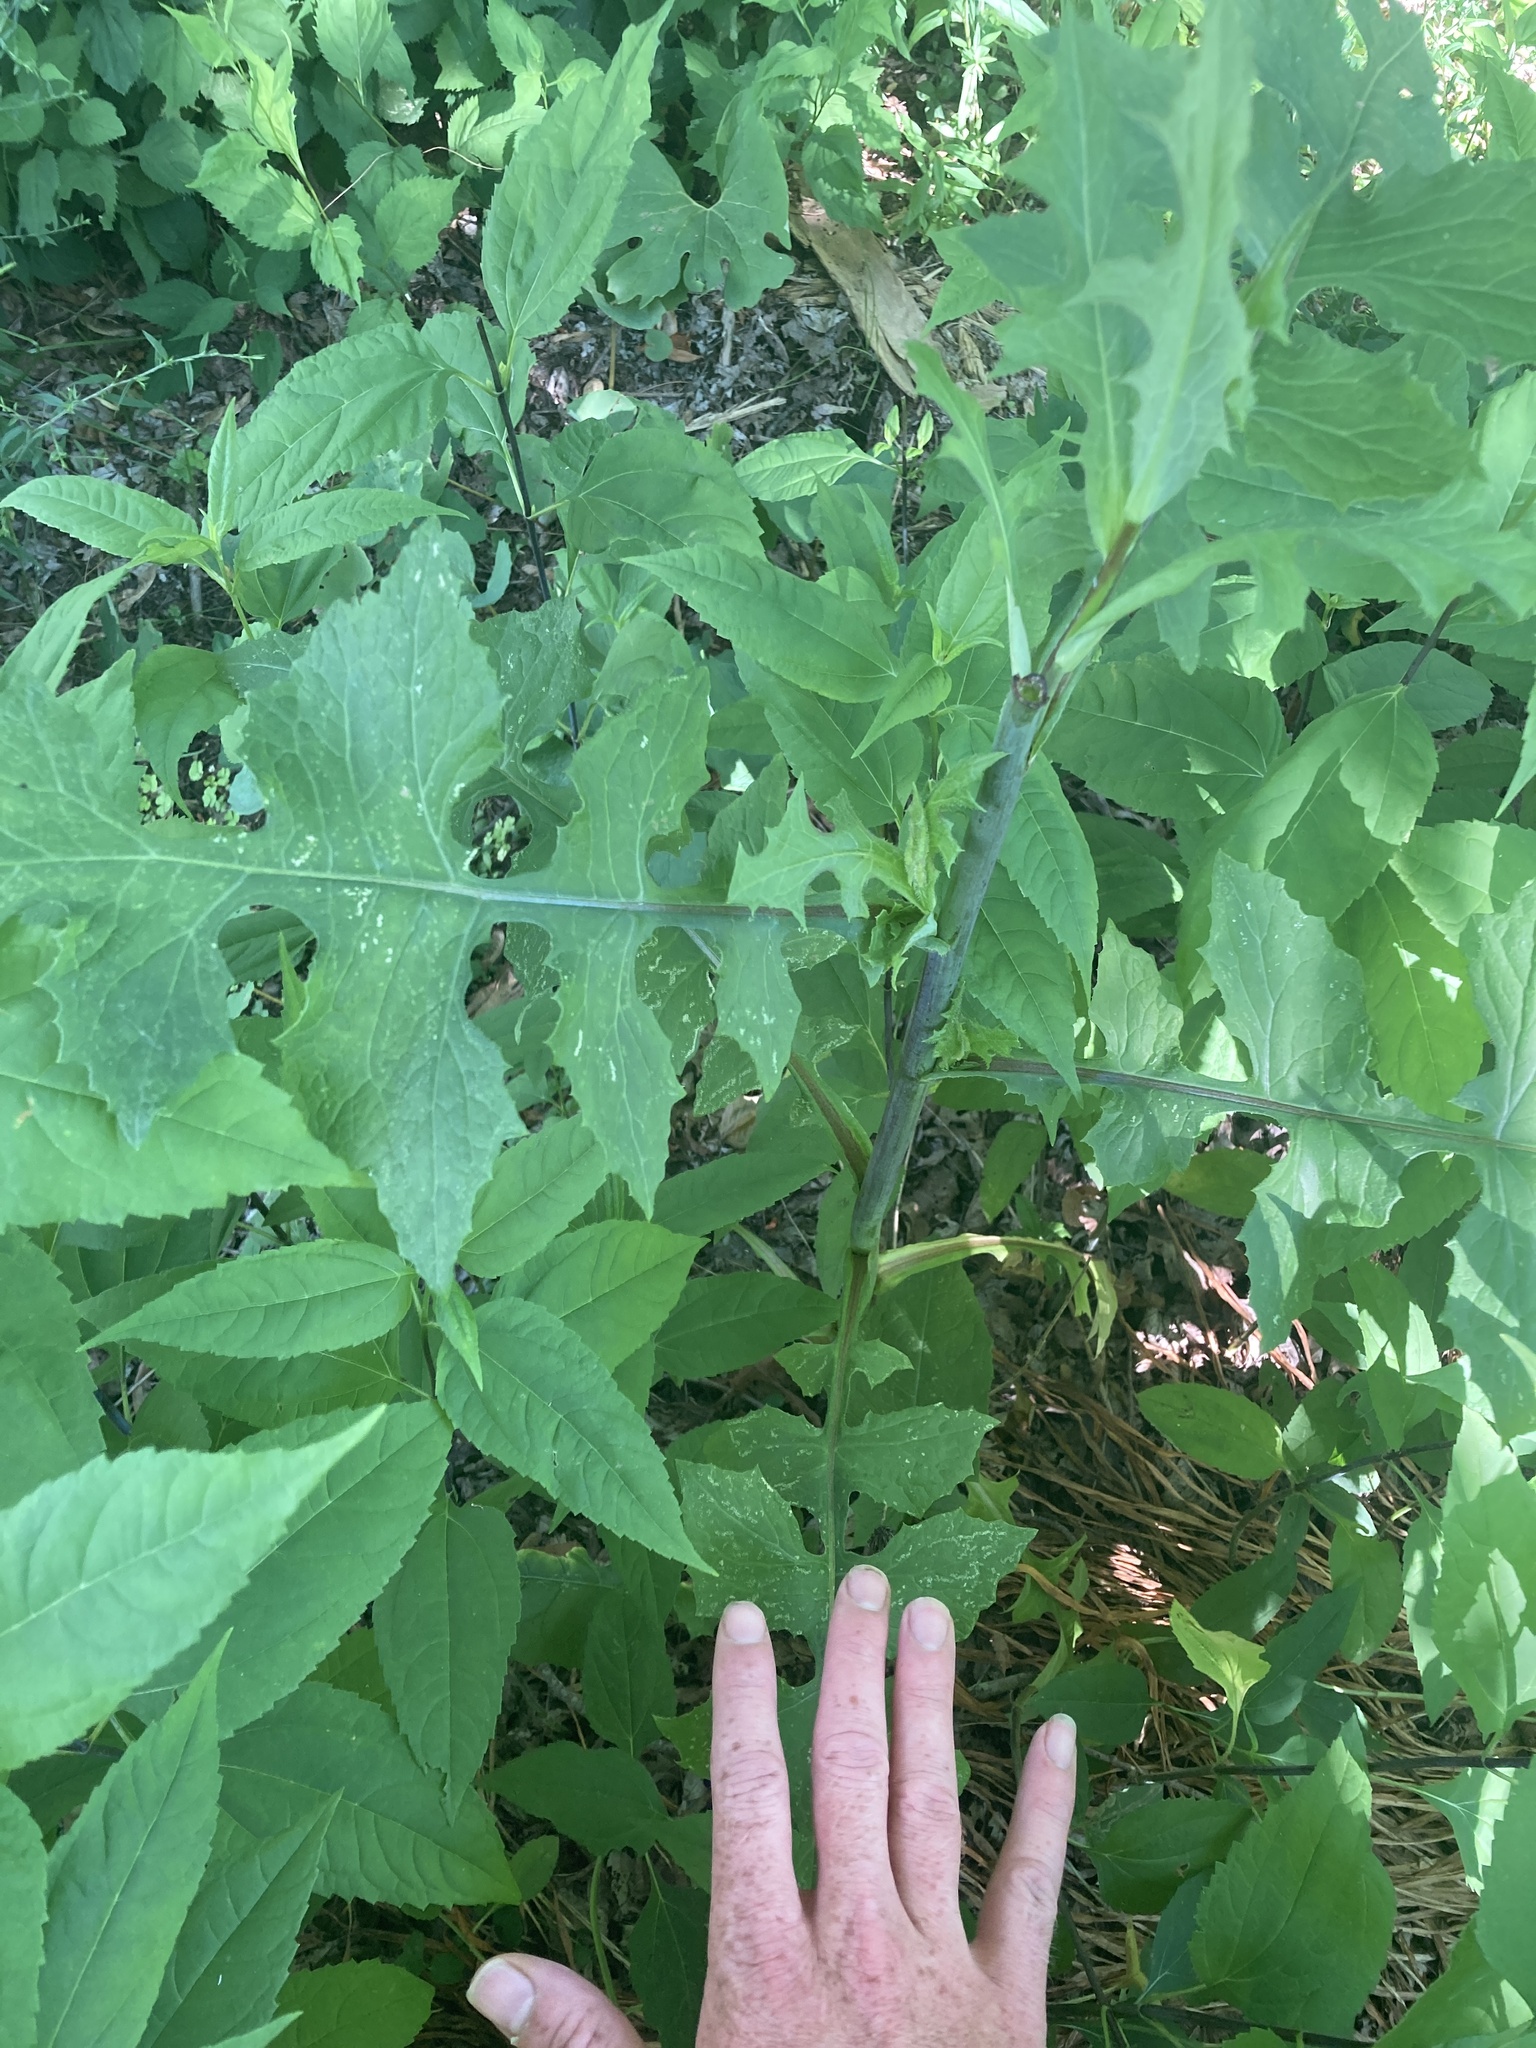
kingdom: Plantae
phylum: Tracheophyta
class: Magnoliopsida
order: Asterales
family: Asteraceae
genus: Lactuca
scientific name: Lactuca biennis
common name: Blue wood lettuce
